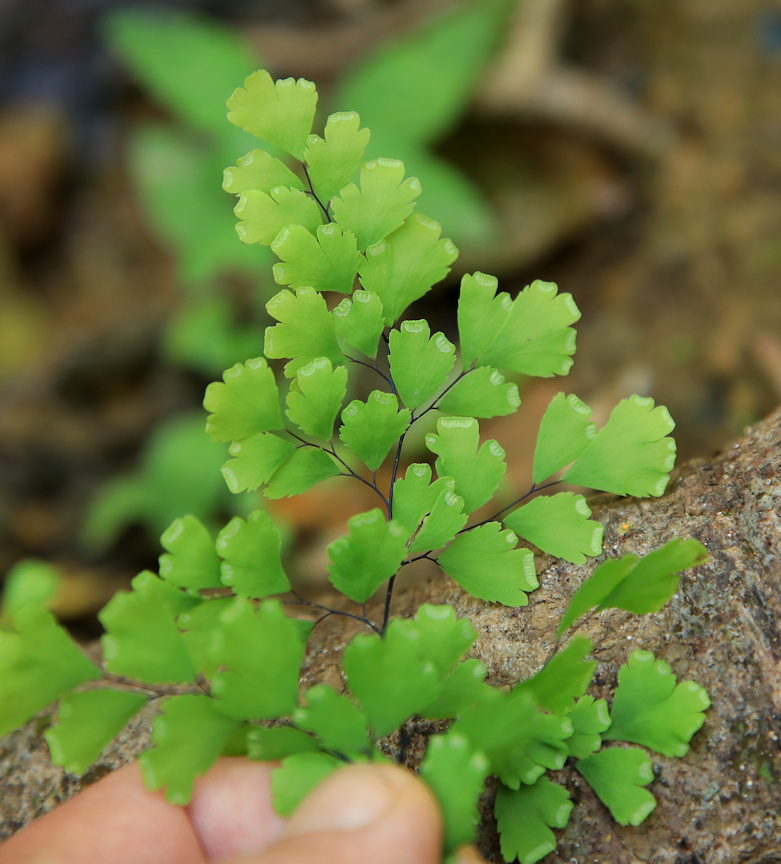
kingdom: Plantae
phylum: Tracheophyta
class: Polypodiopsida
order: Polypodiales
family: Pteridaceae
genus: Adiantum
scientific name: Adiantum capillus-veneris
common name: Maidenhair fern
